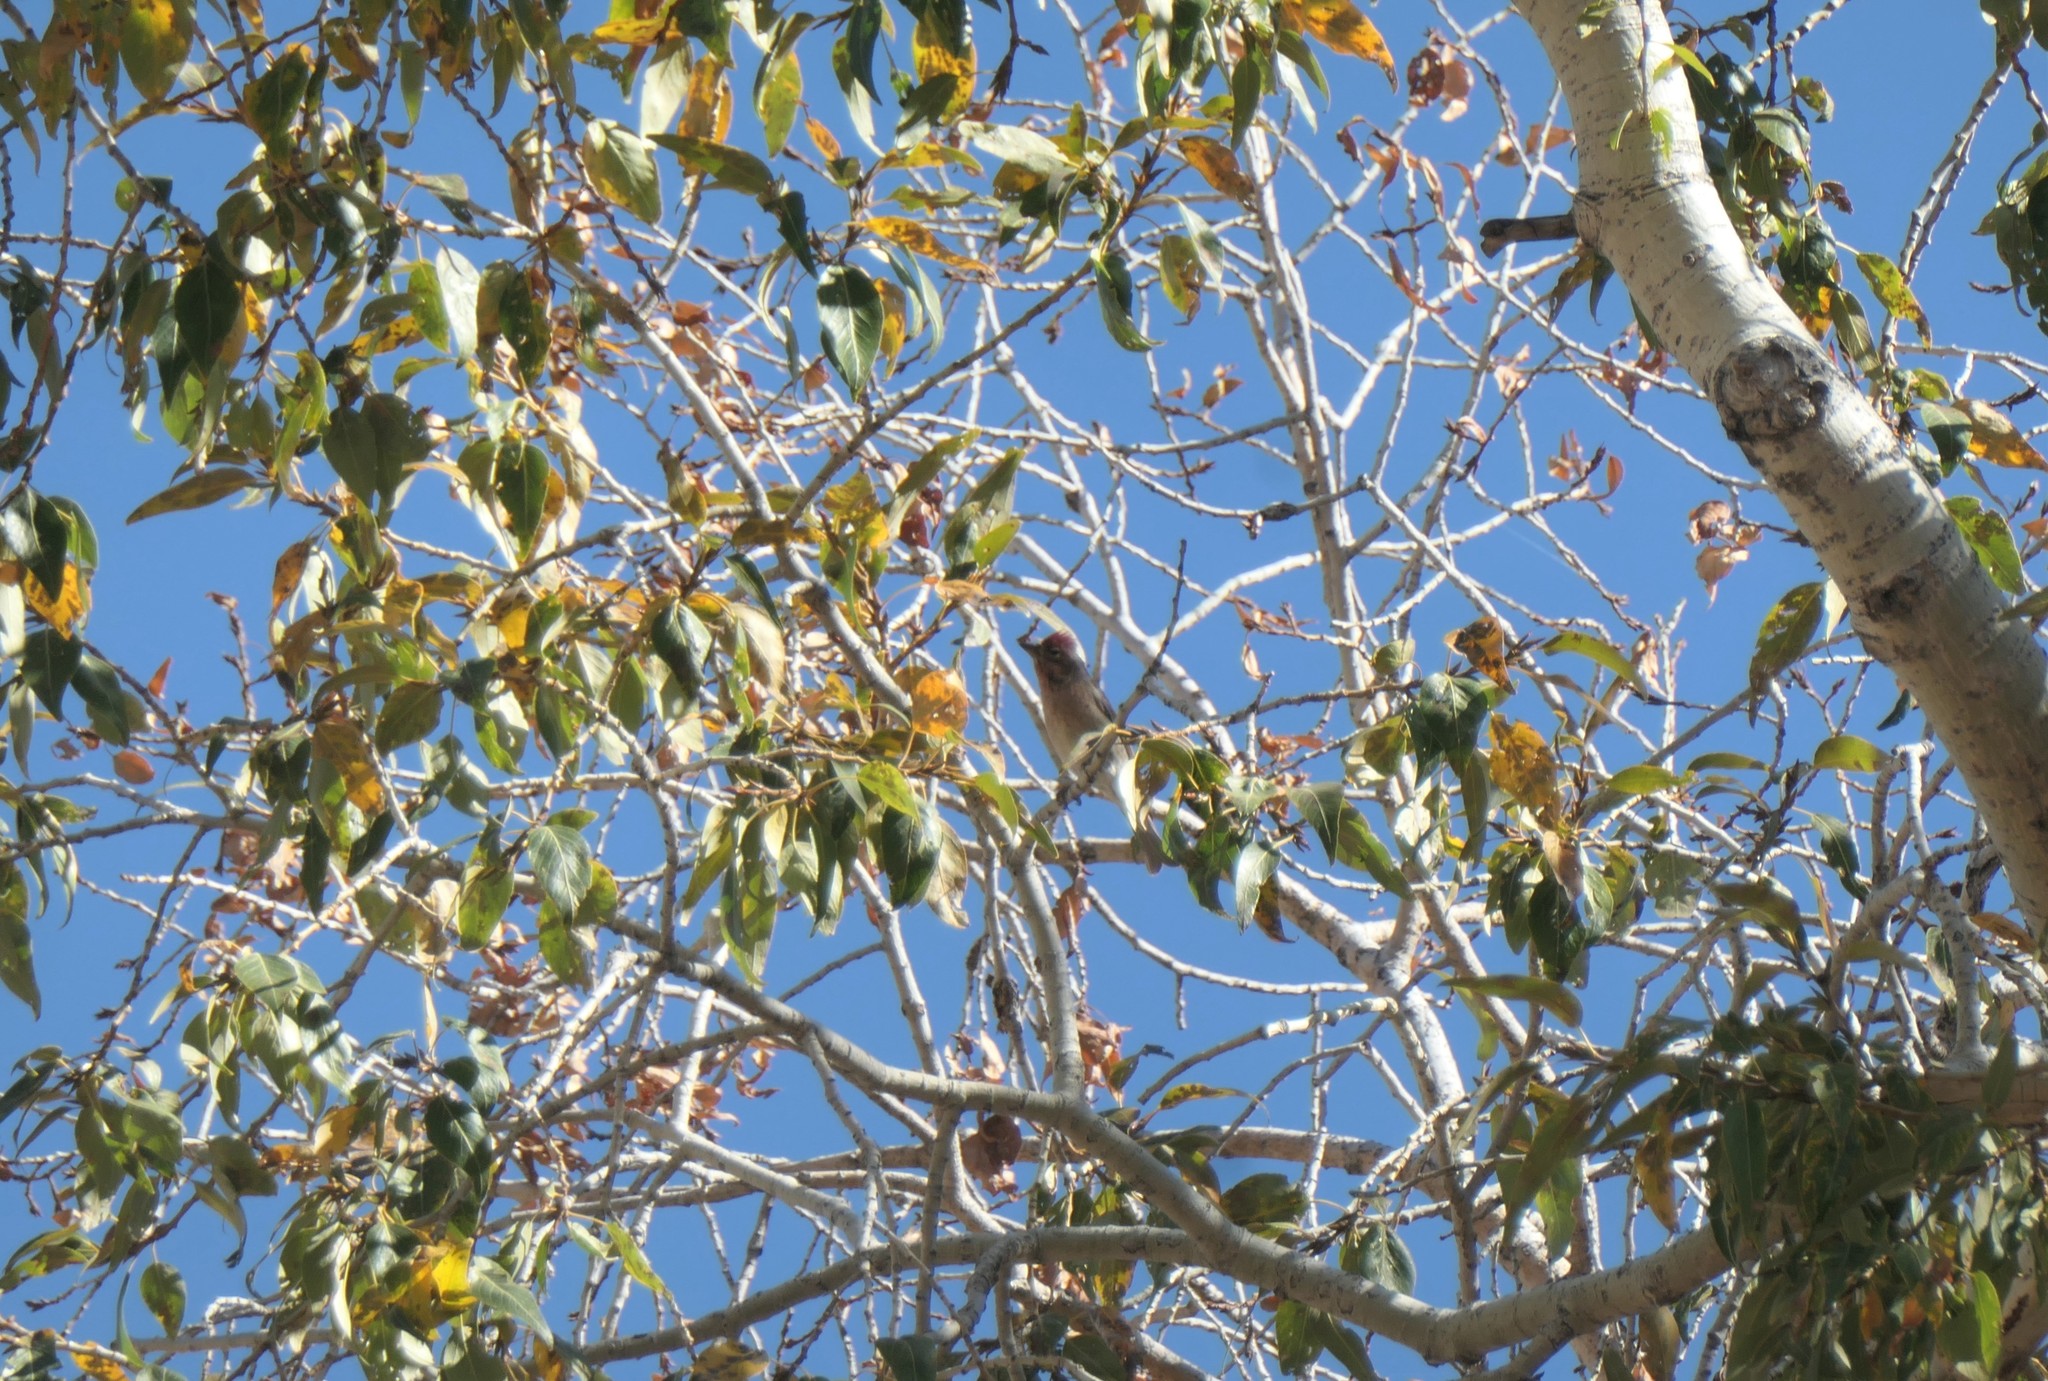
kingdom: Animalia
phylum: Chordata
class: Aves
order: Passeriformes
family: Fringillidae
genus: Haemorhous
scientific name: Haemorhous cassinii
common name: Cassin's finch
